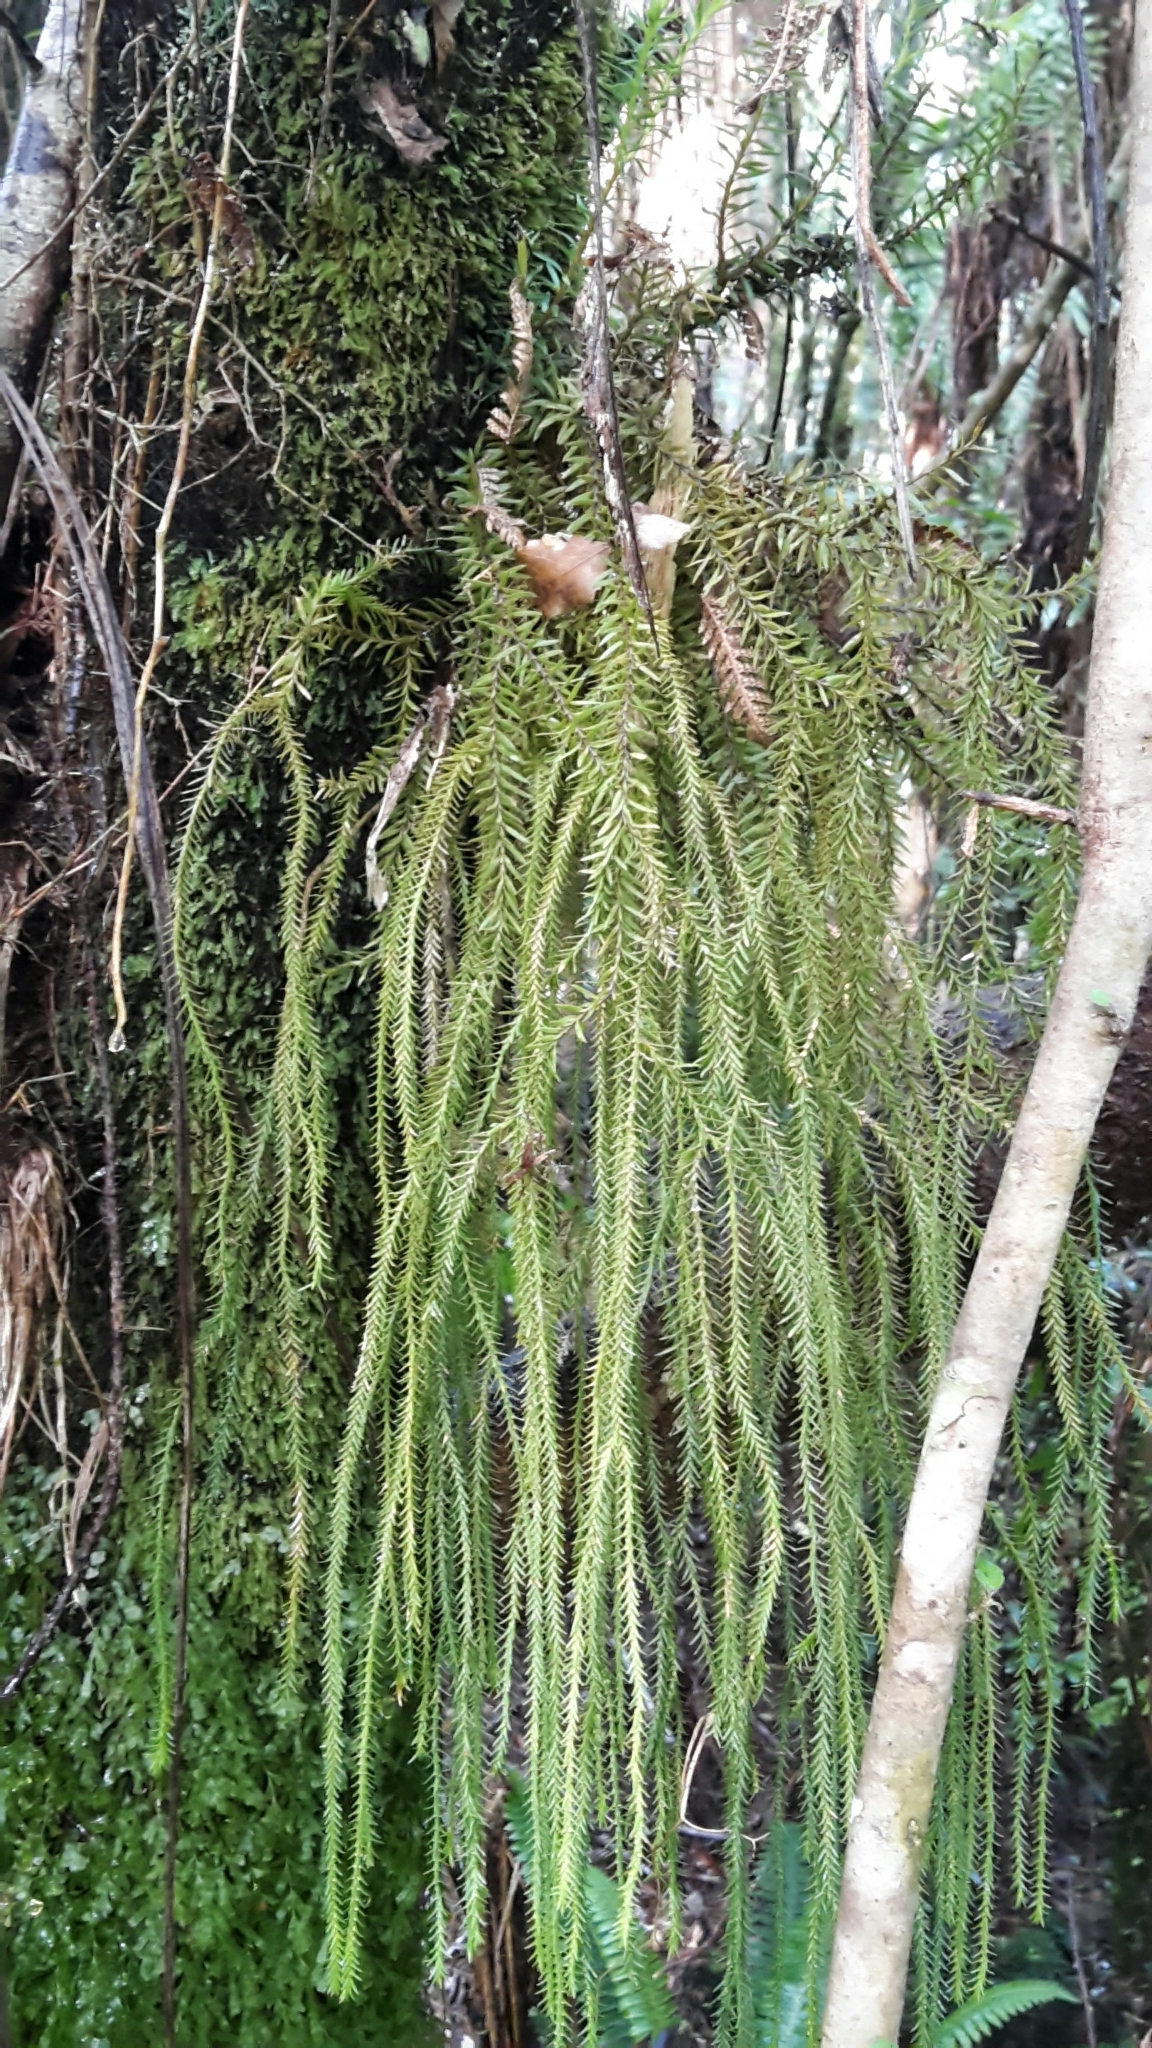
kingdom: Plantae
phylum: Tracheophyta
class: Lycopodiopsida
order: Lycopodiales
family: Lycopodiaceae
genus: Phlegmariurus
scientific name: Phlegmariurus varius
